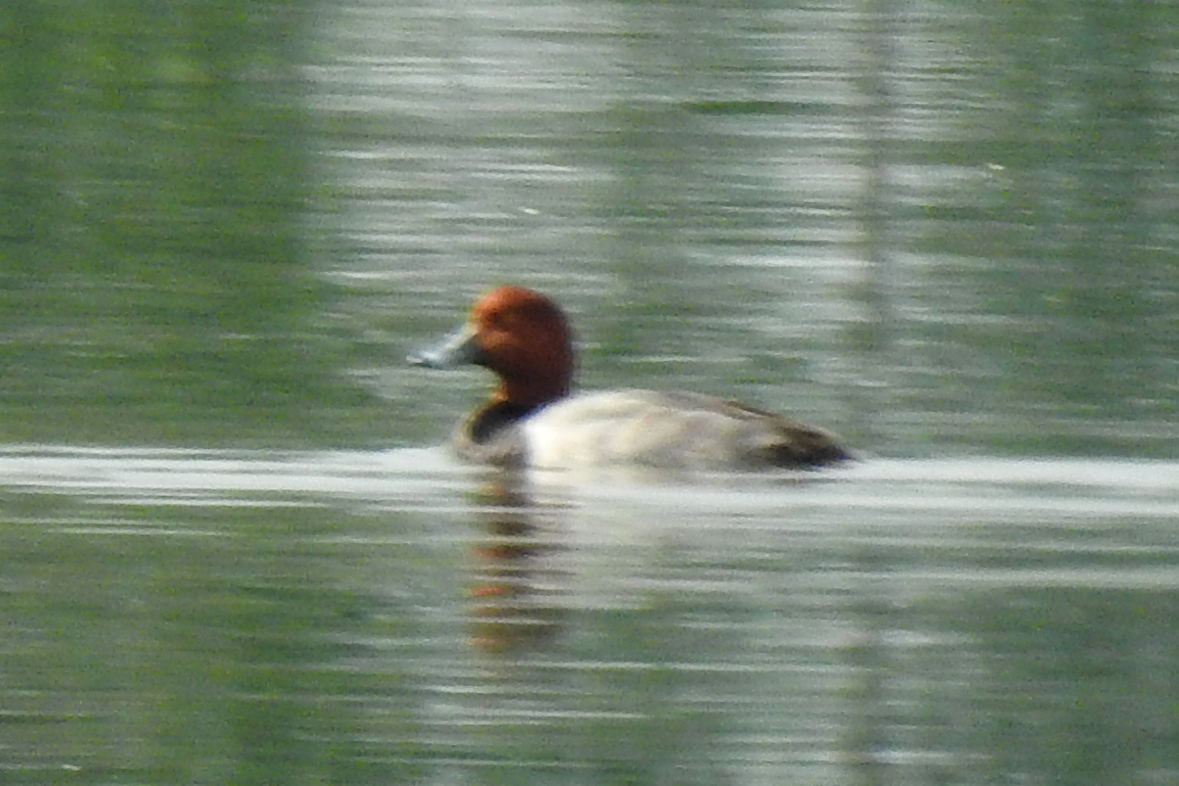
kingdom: Animalia
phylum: Chordata
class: Aves
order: Anseriformes
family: Anatidae
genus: Aythya
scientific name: Aythya americana
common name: Redhead
